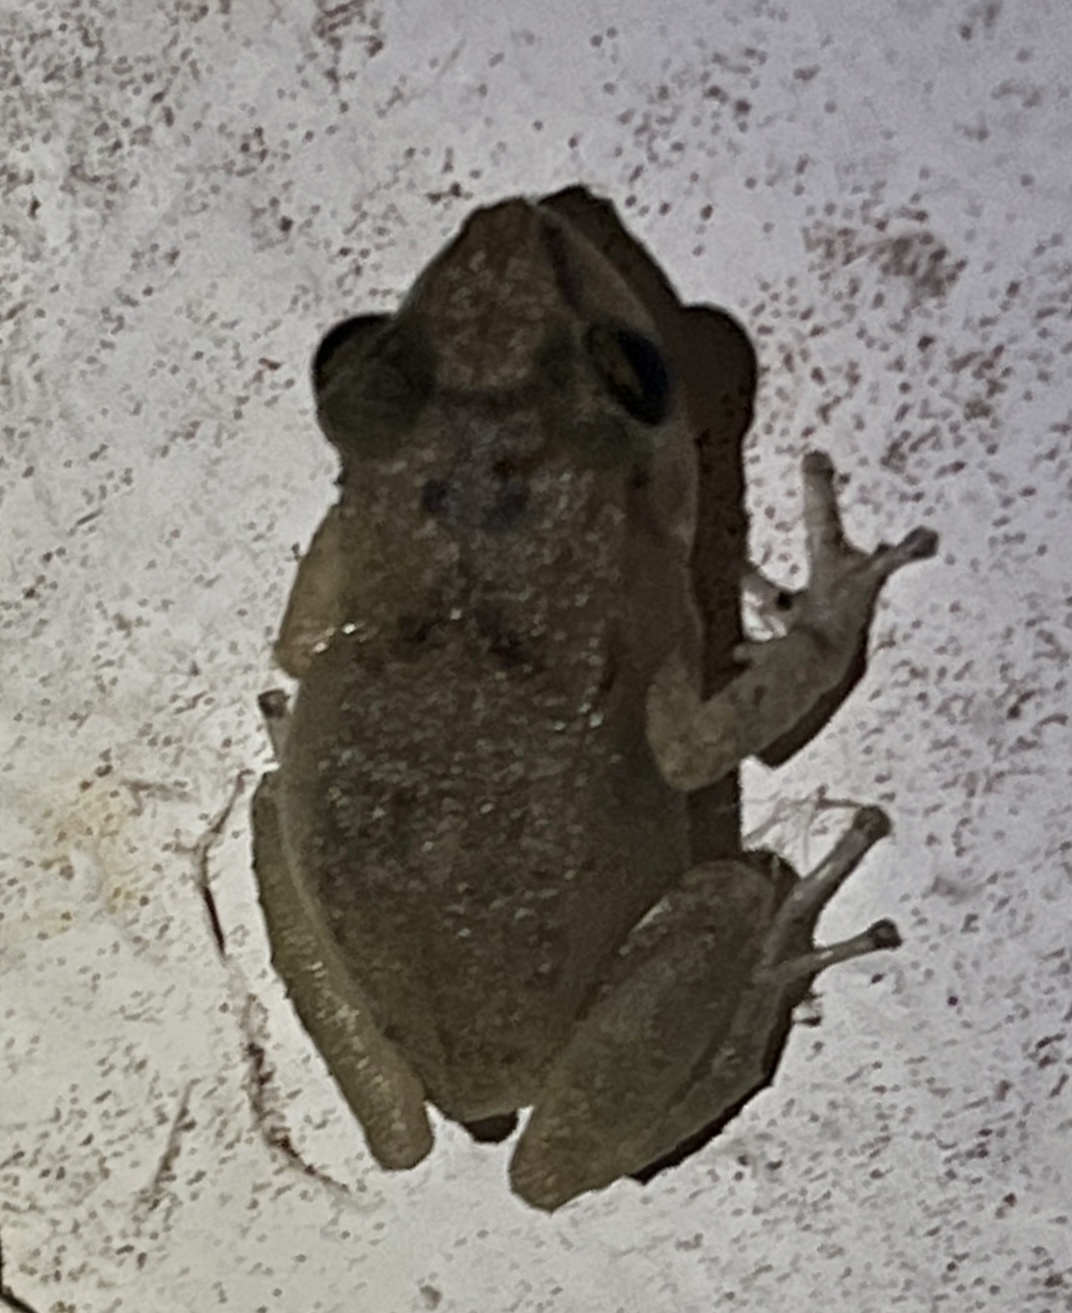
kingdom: Animalia
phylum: Chordata
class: Amphibia
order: Anura
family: Eleutherodactylidae
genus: Eleutherodactylus
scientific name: Eleutherodactylus montserratae
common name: Montserrat whistling frog
